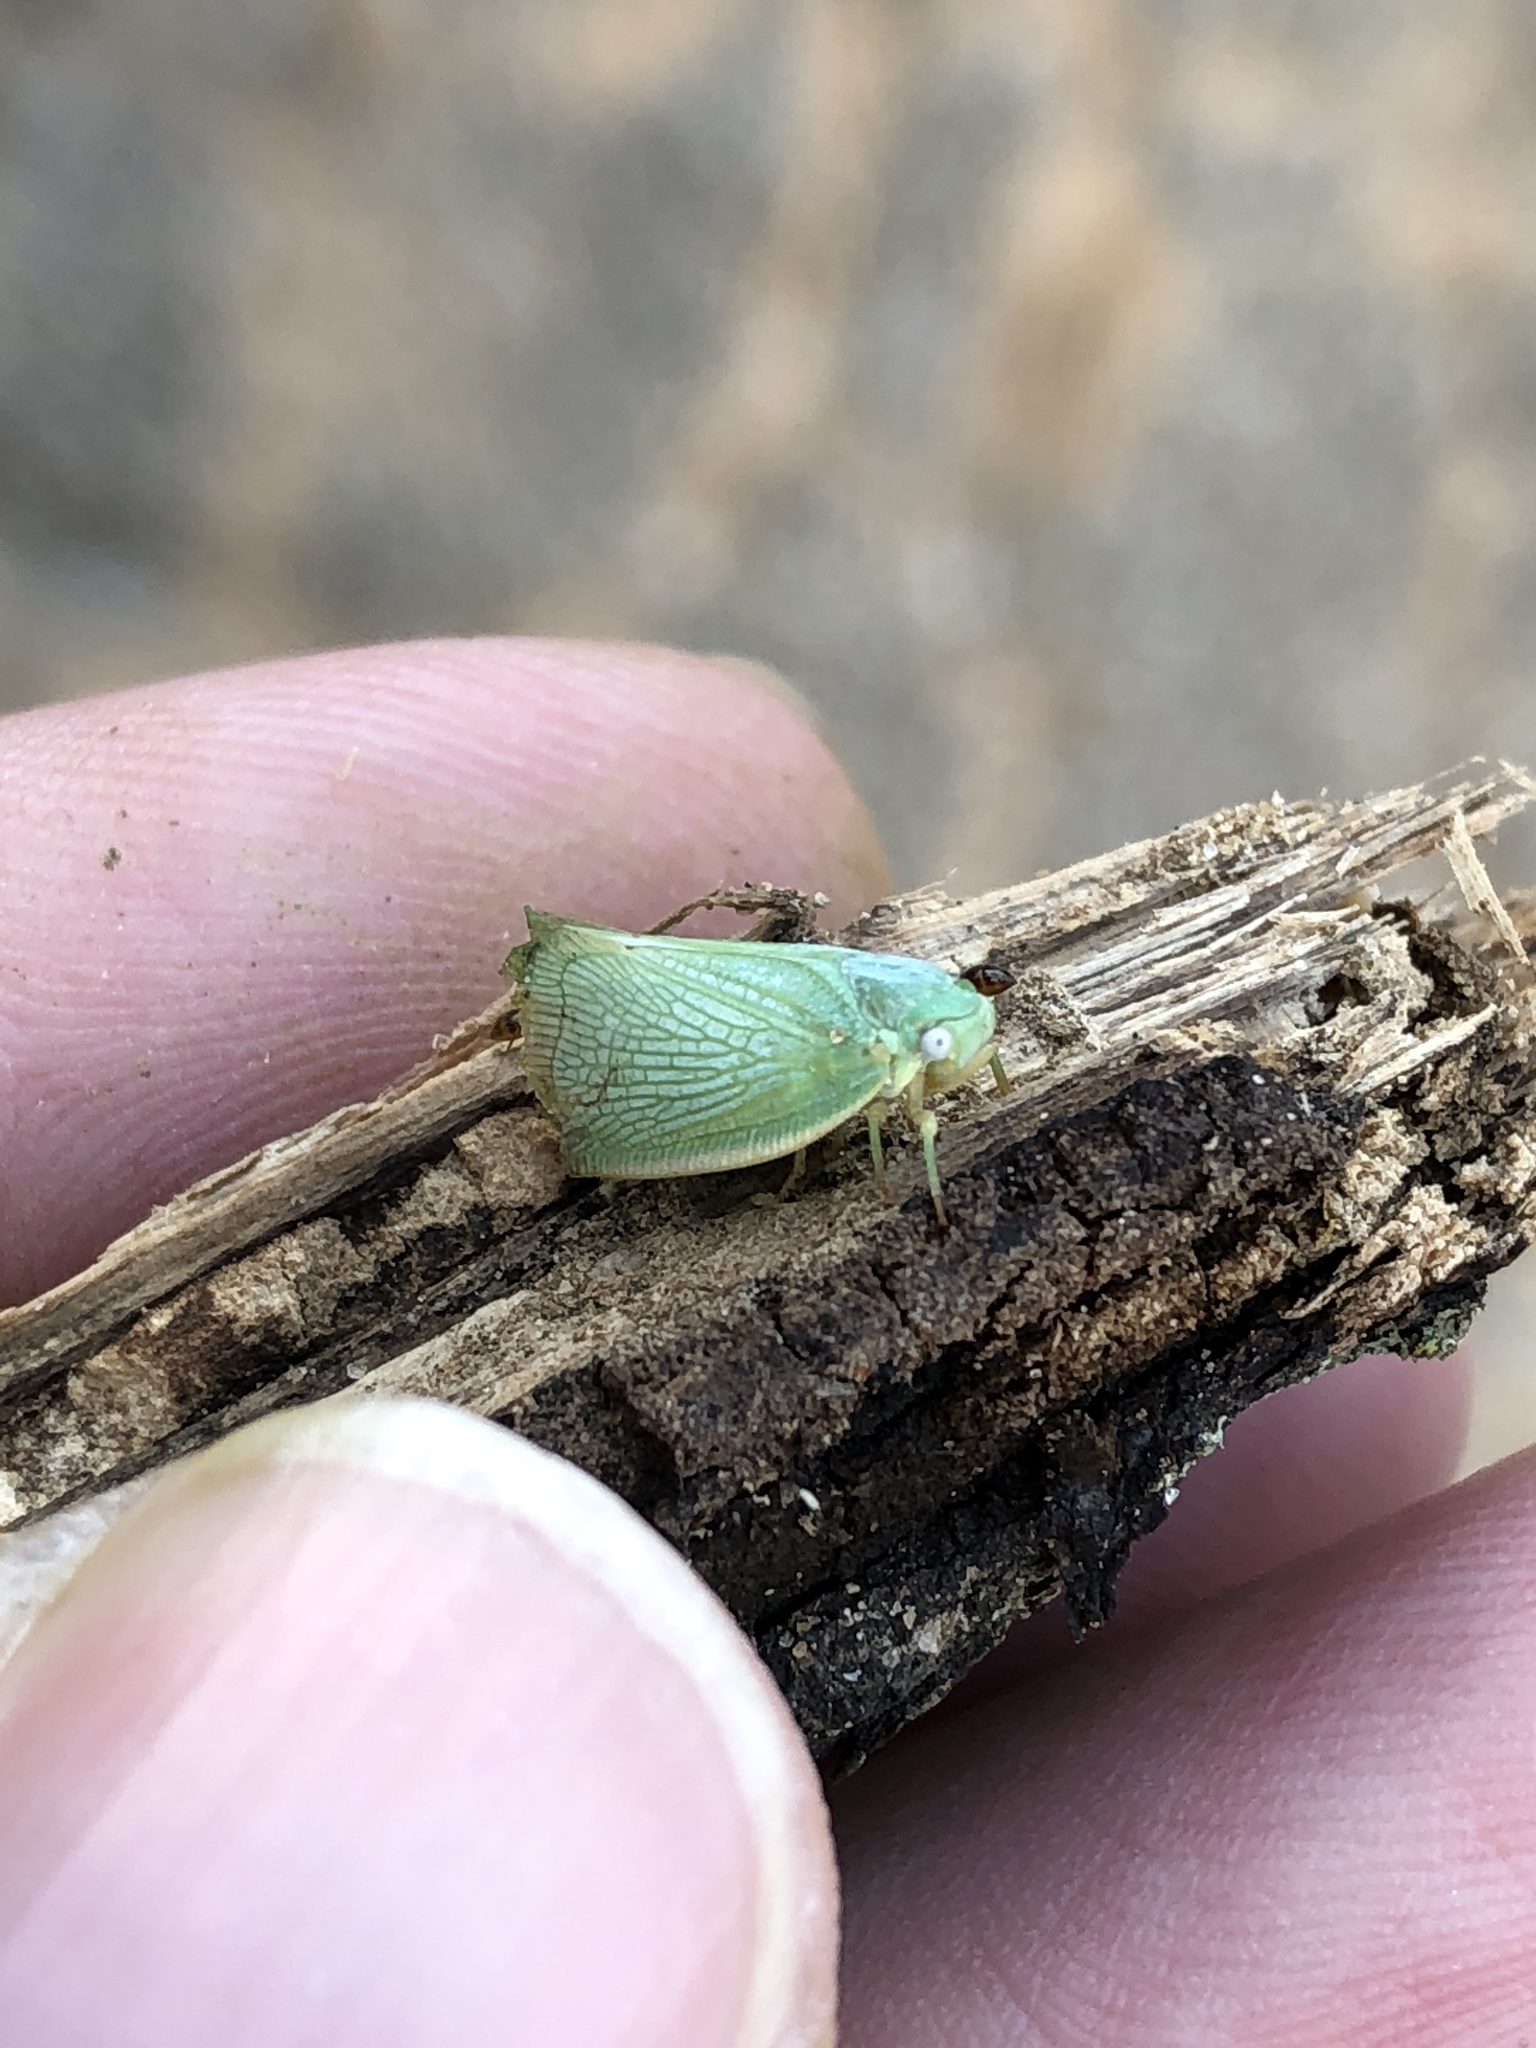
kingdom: Animalia
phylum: Arthropoda
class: Insecta
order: Hemiptera
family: Flatidae
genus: Flatormenis
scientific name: Flatormenis proxima
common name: Northern flatid planthopper
